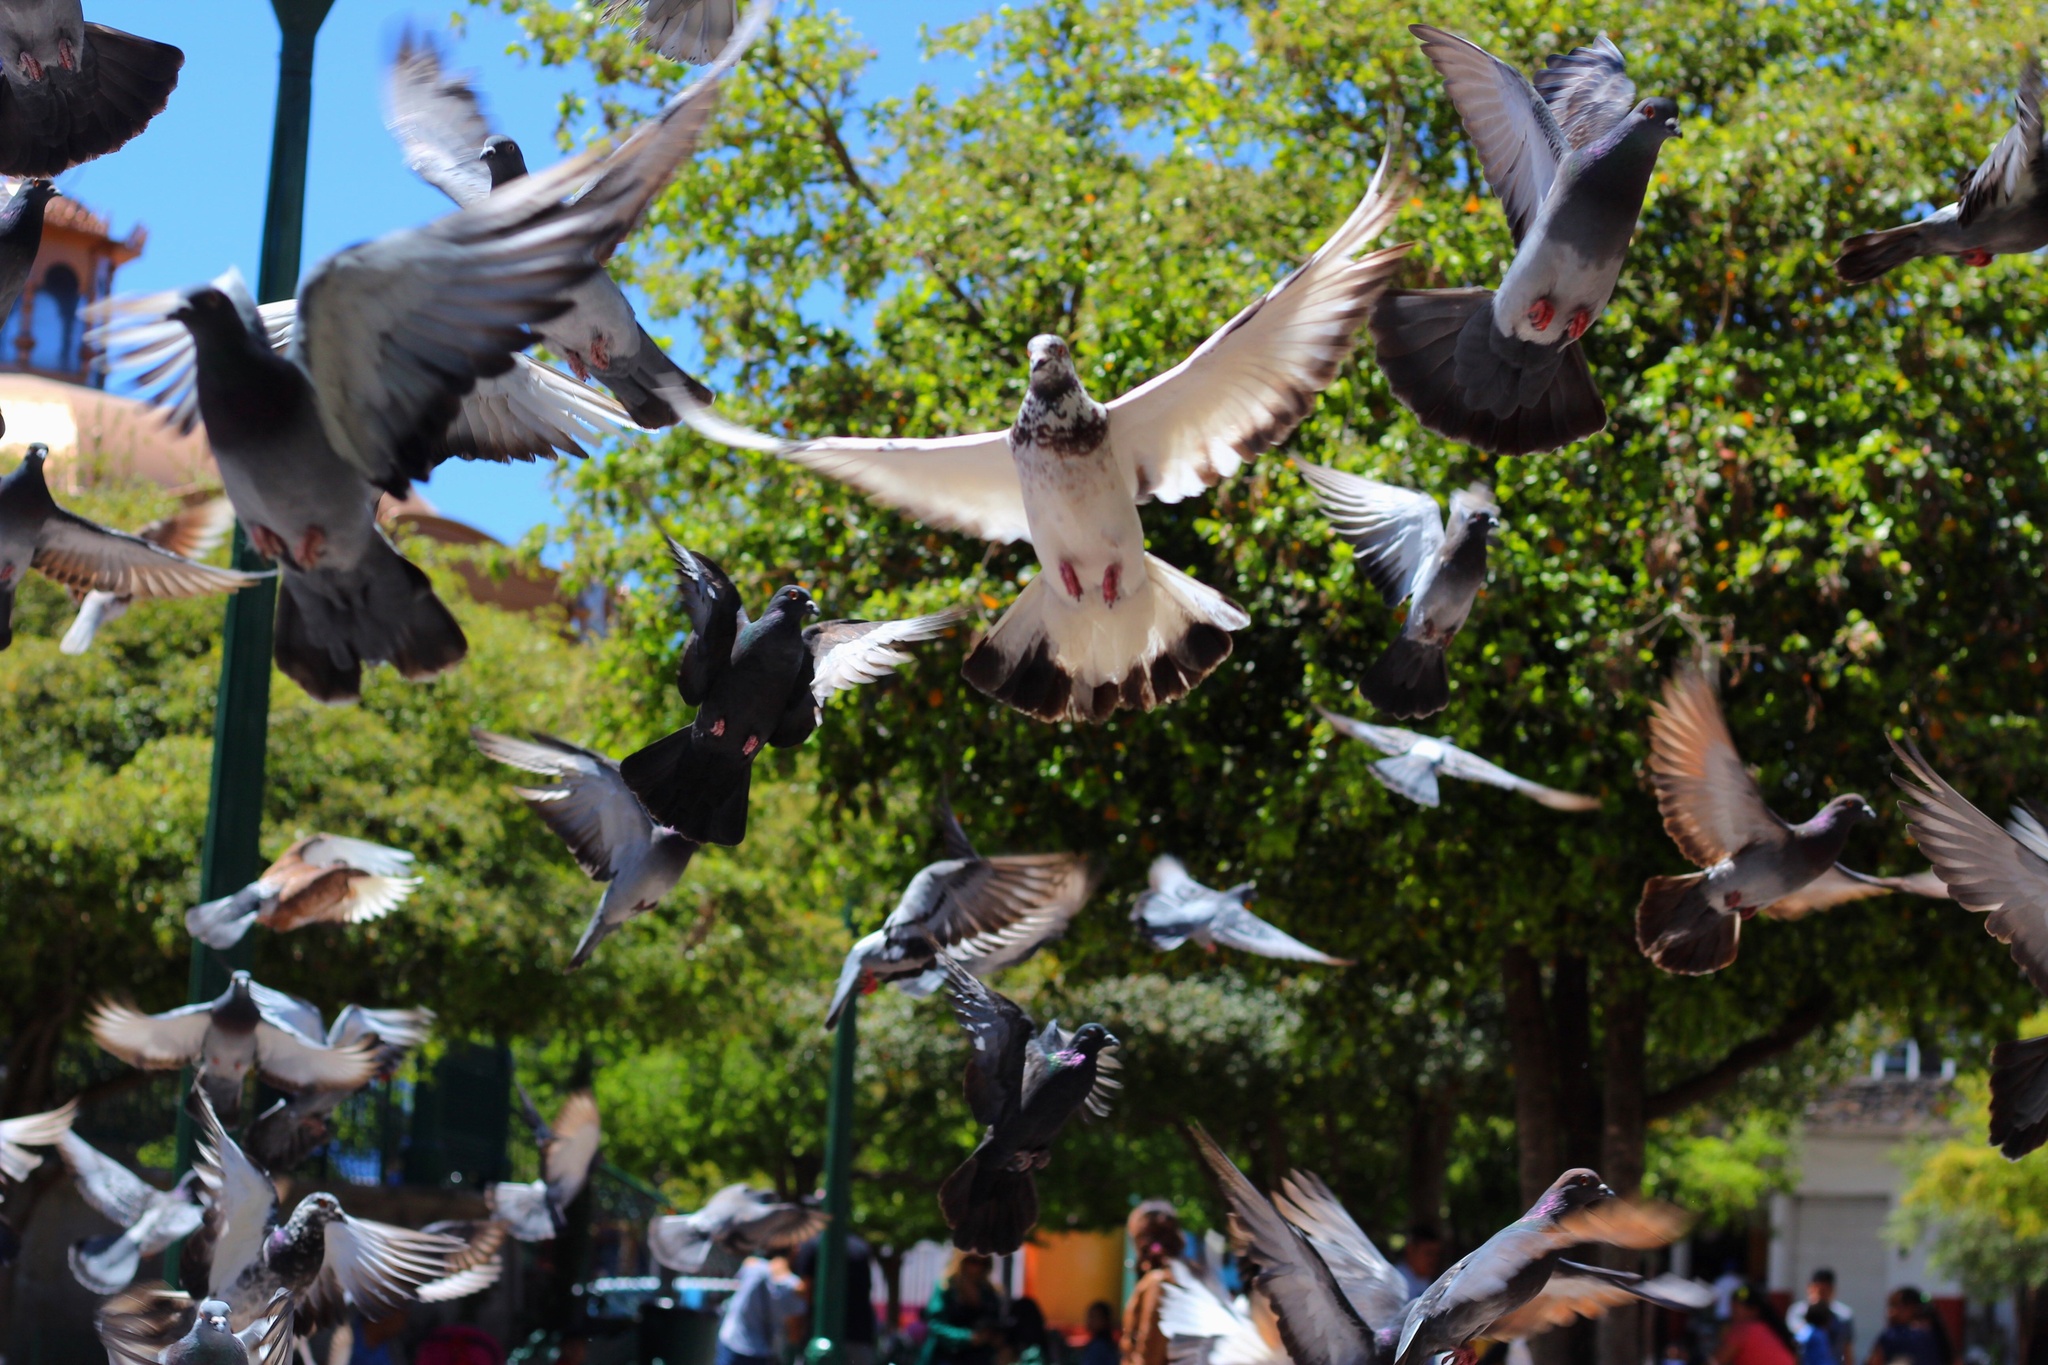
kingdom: Animalia
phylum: Chordata
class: Aves
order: Columbiformes
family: Columbidae
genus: Columba
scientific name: Columba livia
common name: Rock pigeon
